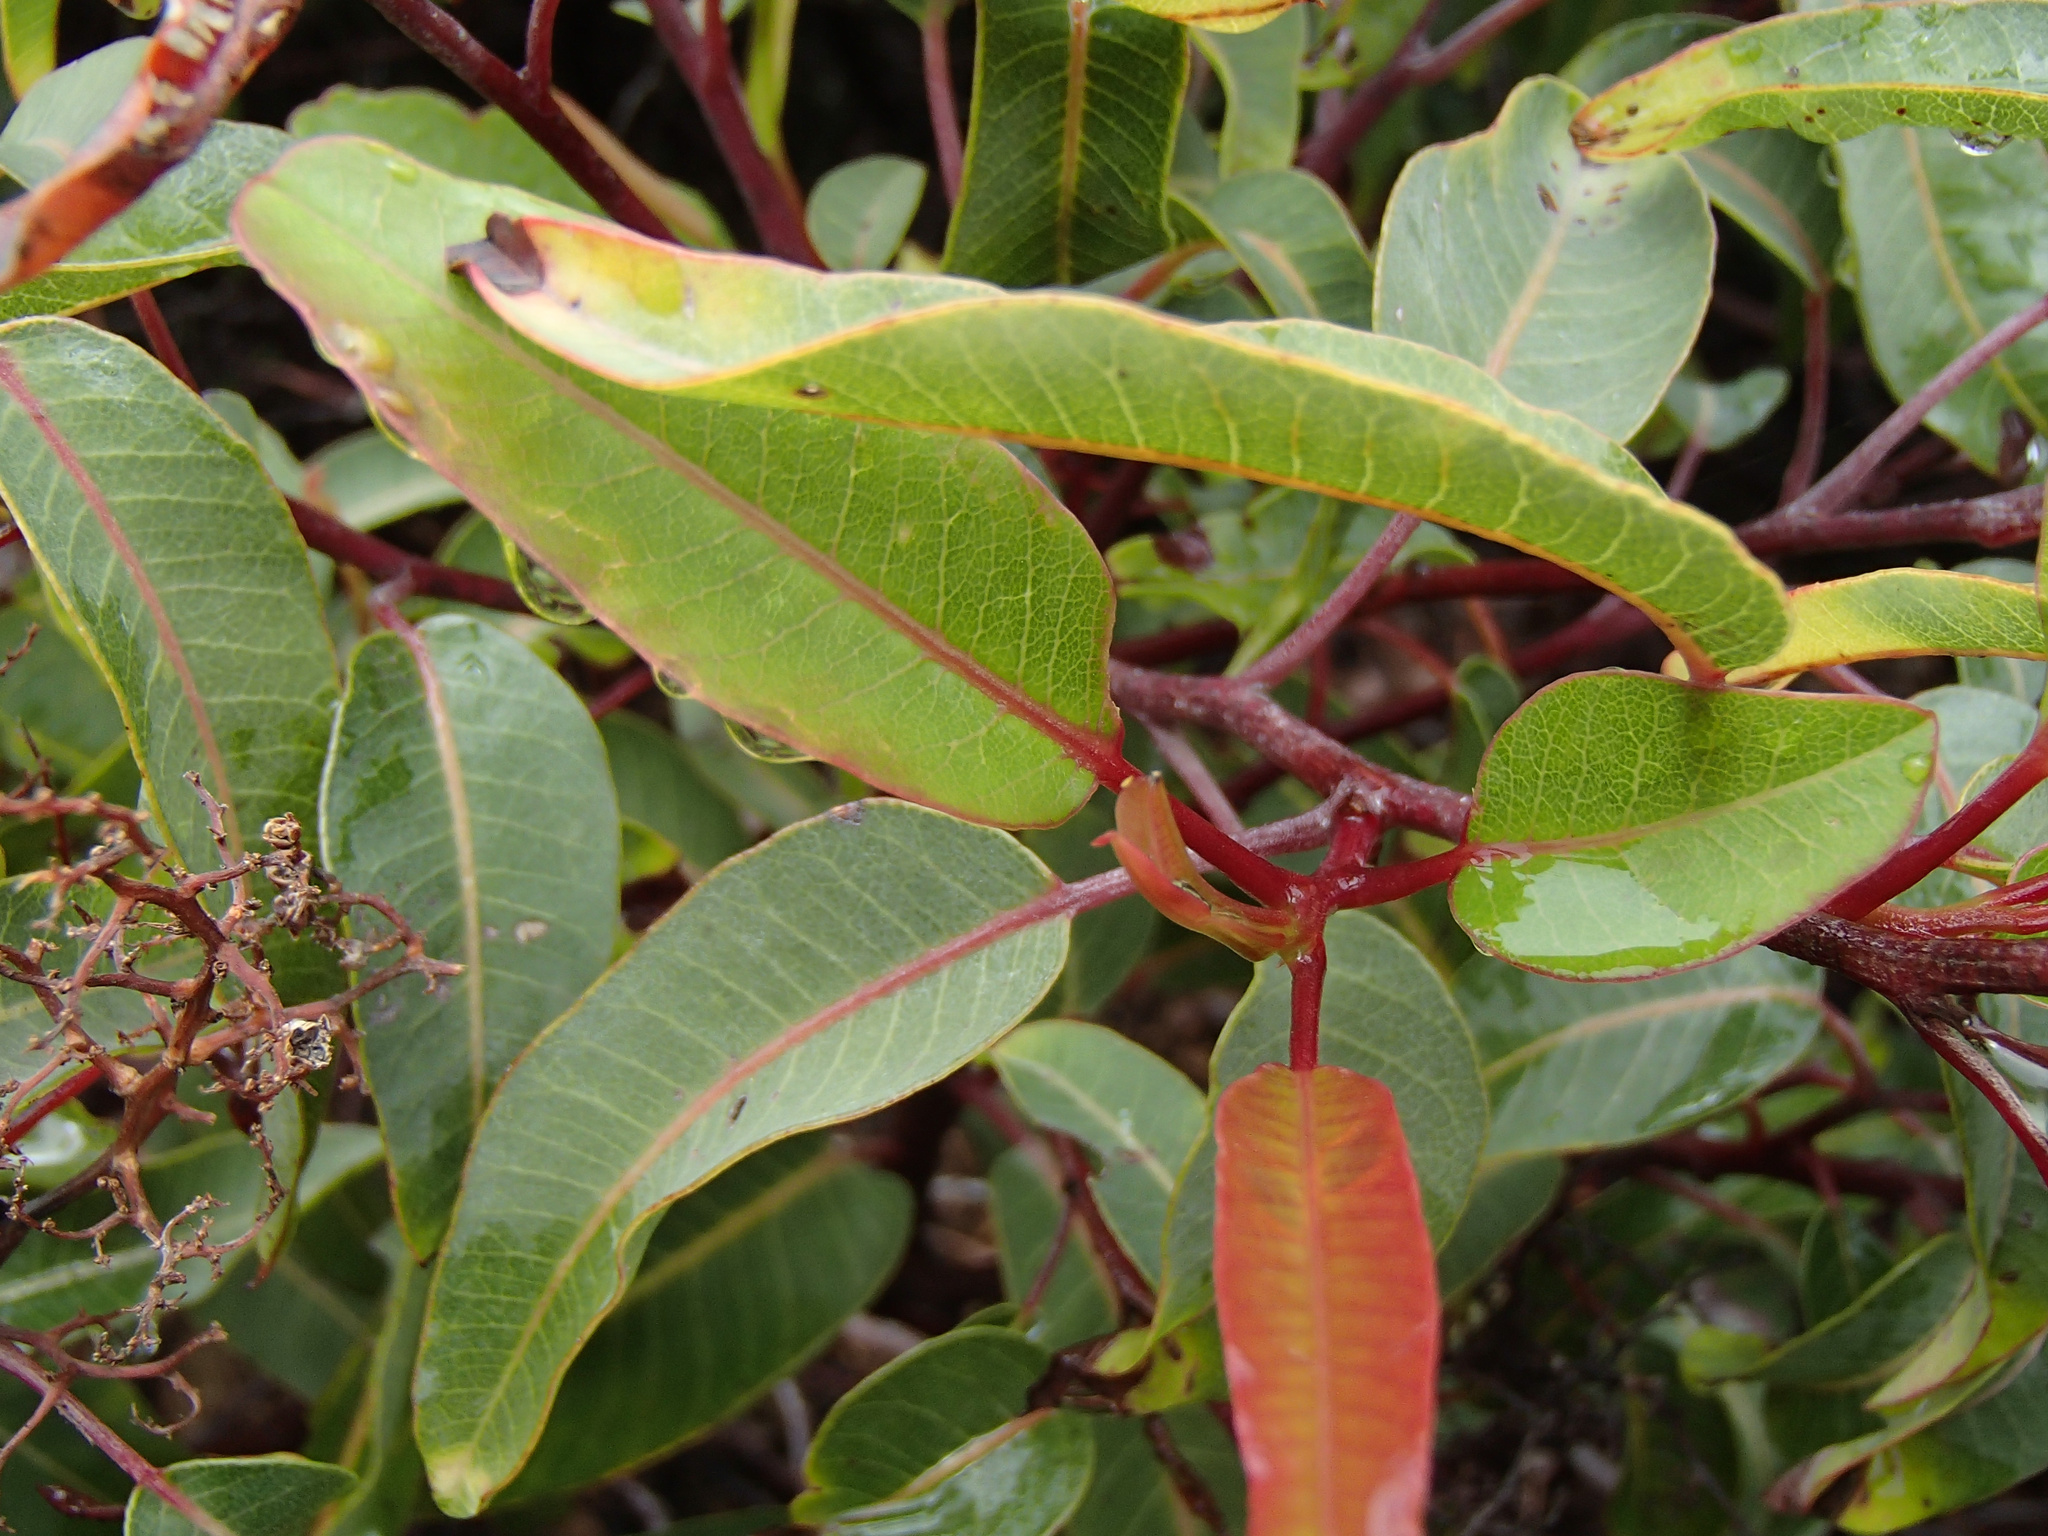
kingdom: Plantae
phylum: Tracheophyta
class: Magnoliopsida
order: Sapindales
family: Anacardiaceae
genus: Malosma
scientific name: Malosma laurina
